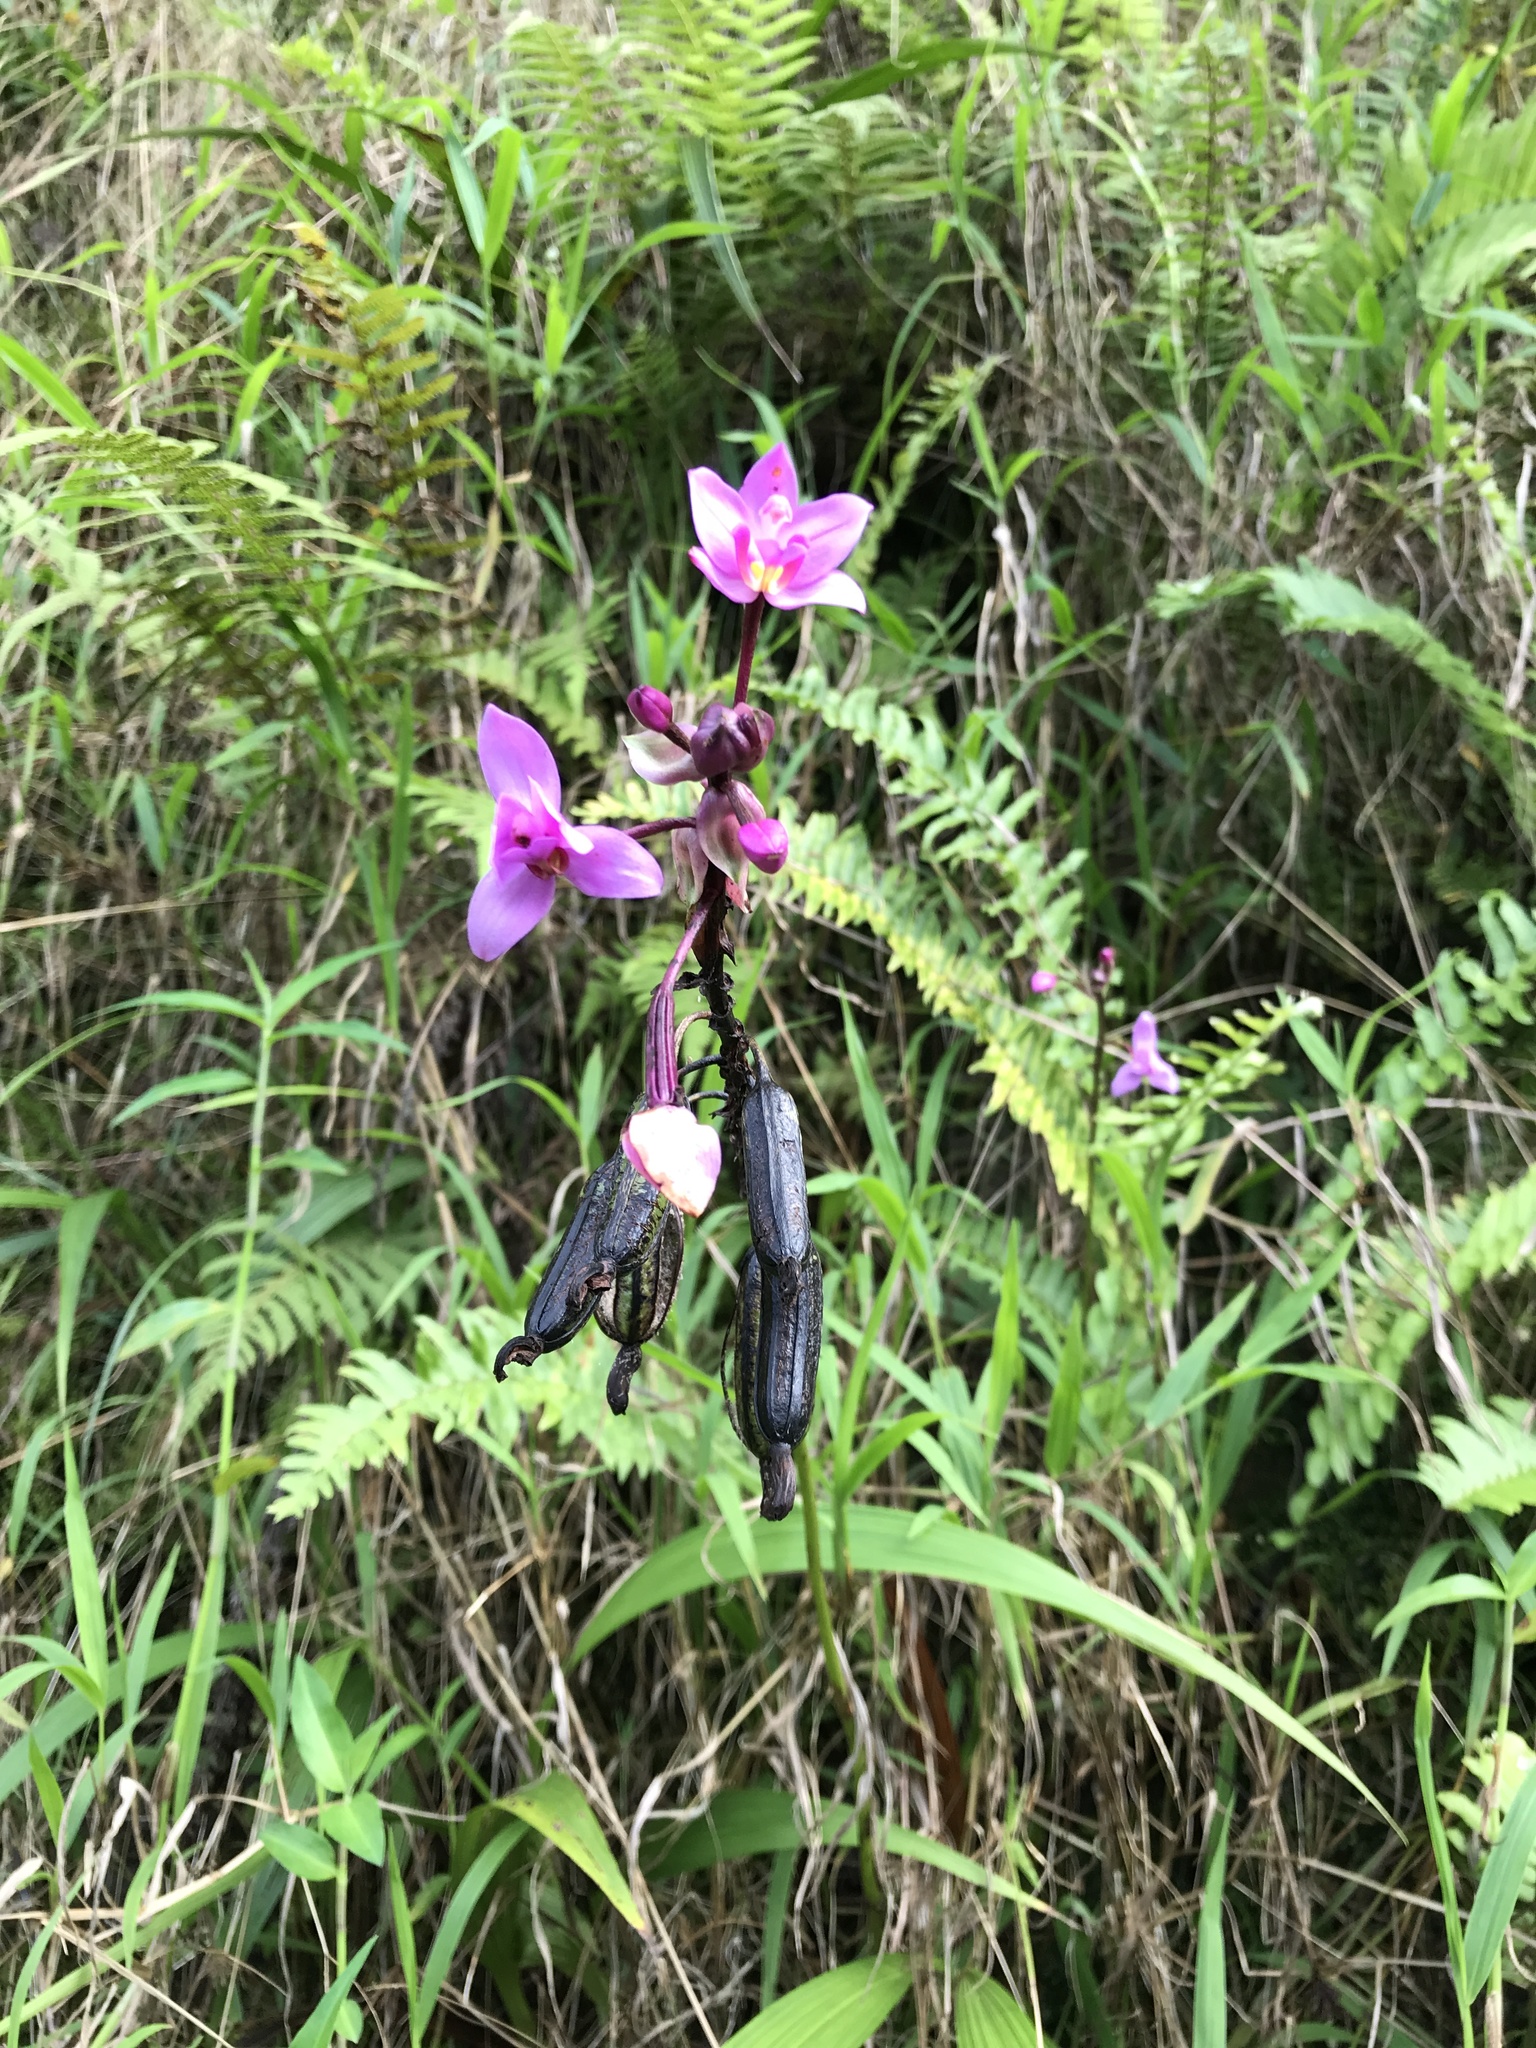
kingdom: Plantae
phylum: Tracheophyta
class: Liliopsida
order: Asparagales
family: Orchidaceae
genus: Spathoglottis
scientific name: Spathoglottis plicata
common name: Philippine ground orchid
